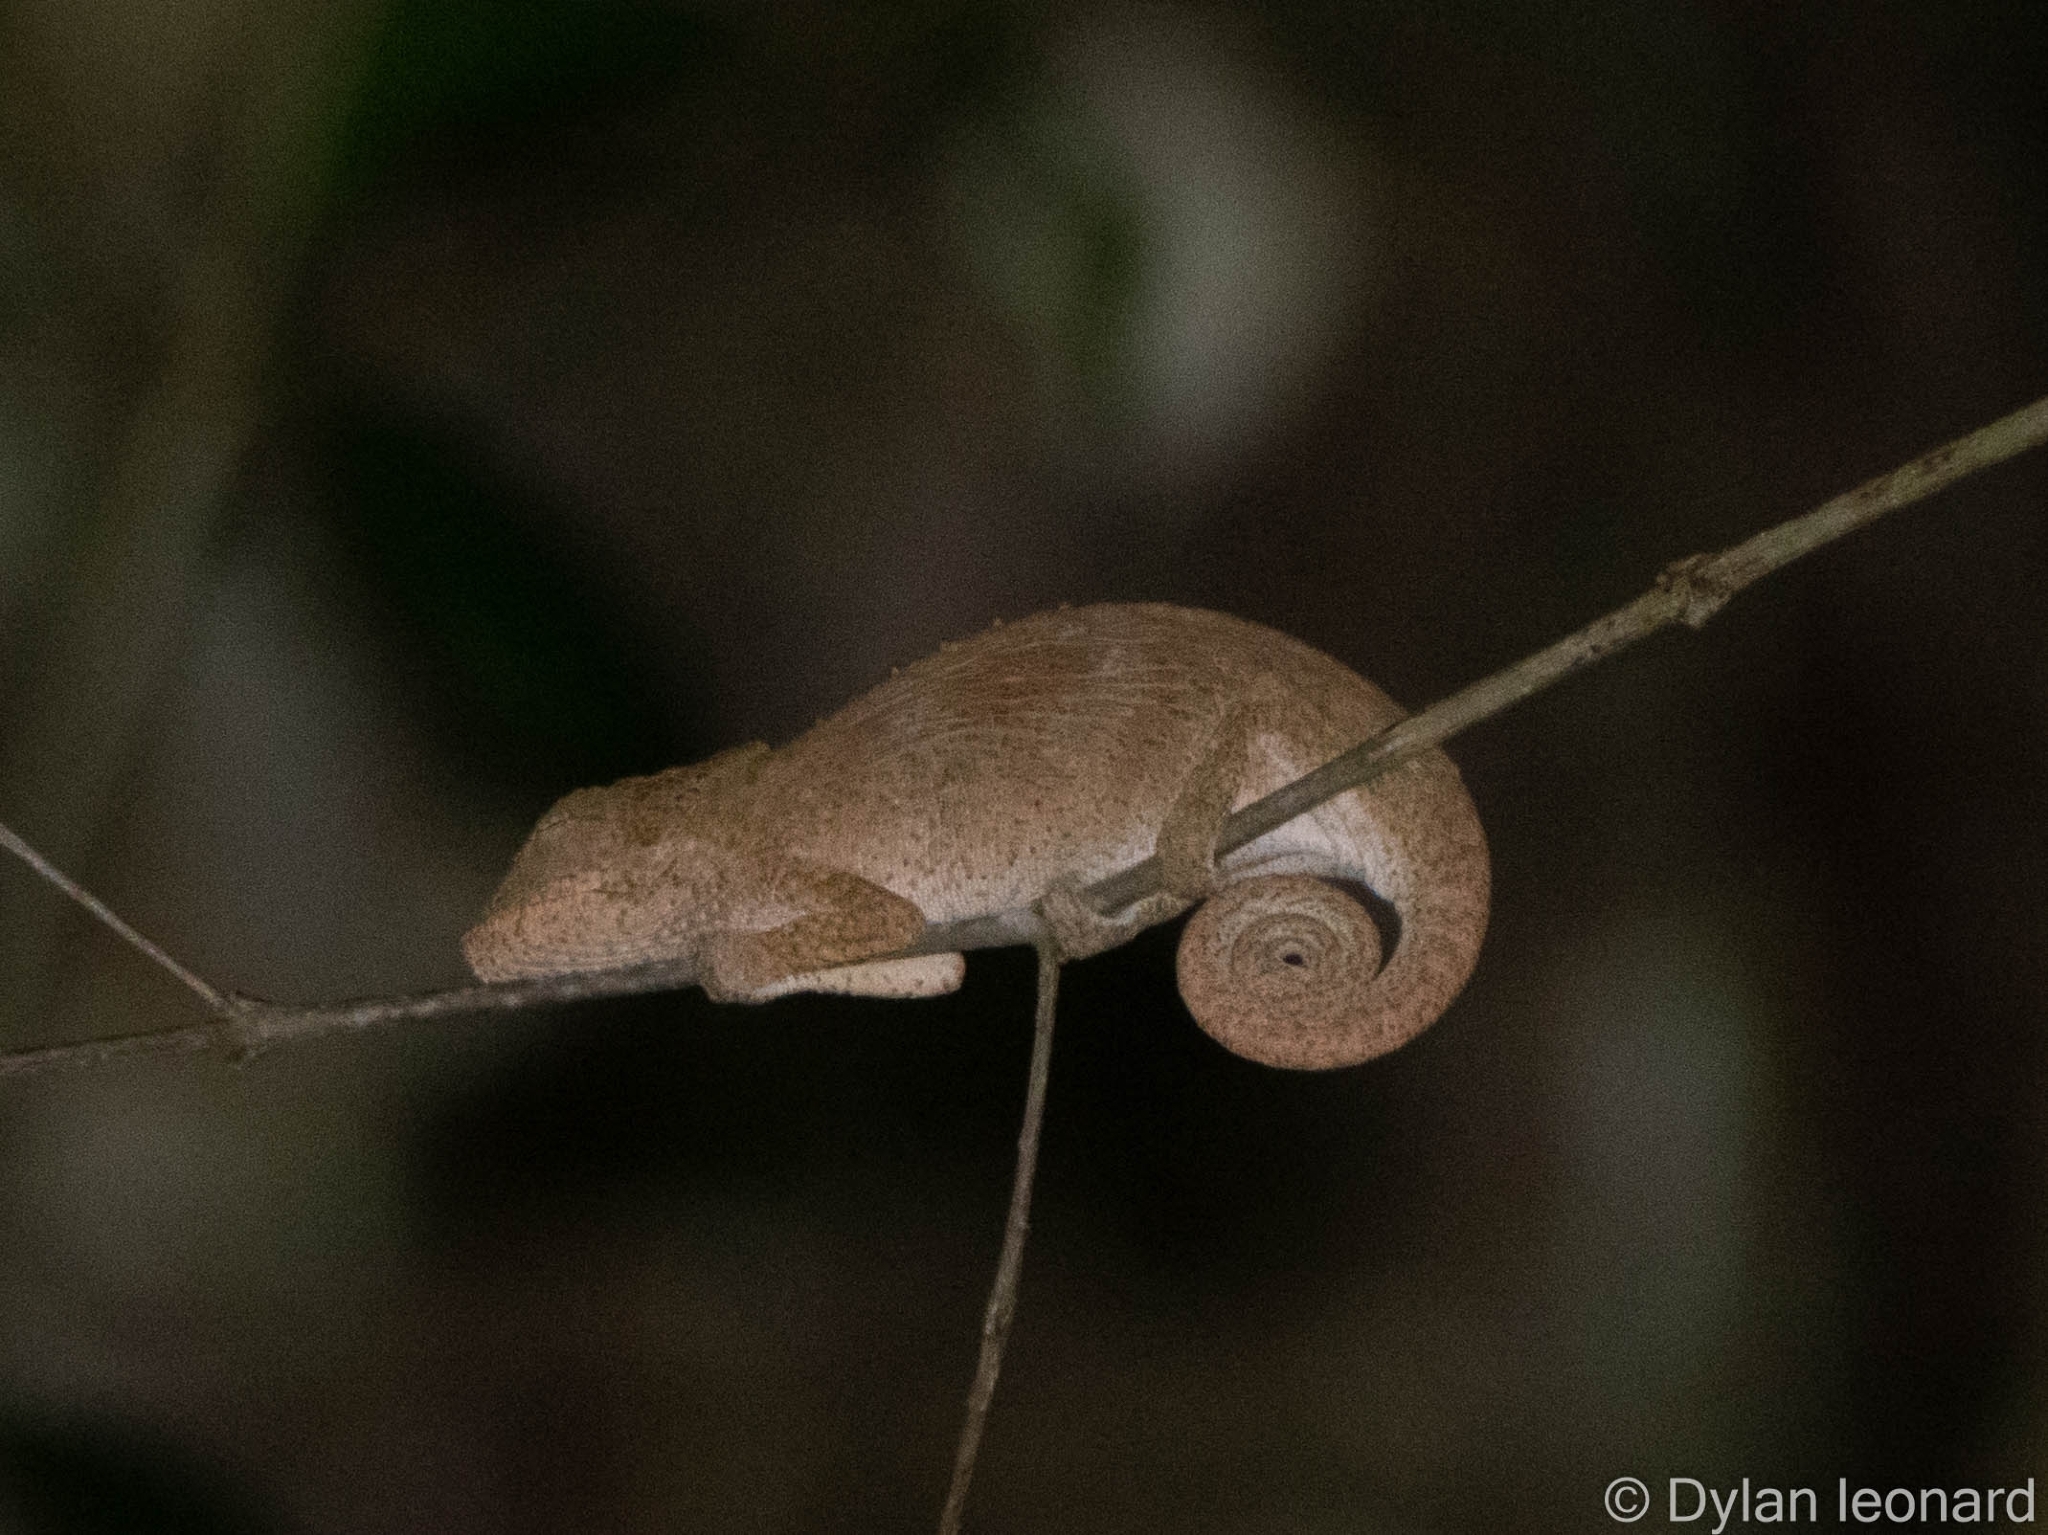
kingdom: Animalia
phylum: Chordata
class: Squamata
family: Chamaeleonidae
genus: Bradypodion
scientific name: Bradypodion setaroi
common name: Setaro's dwarf chameleon
